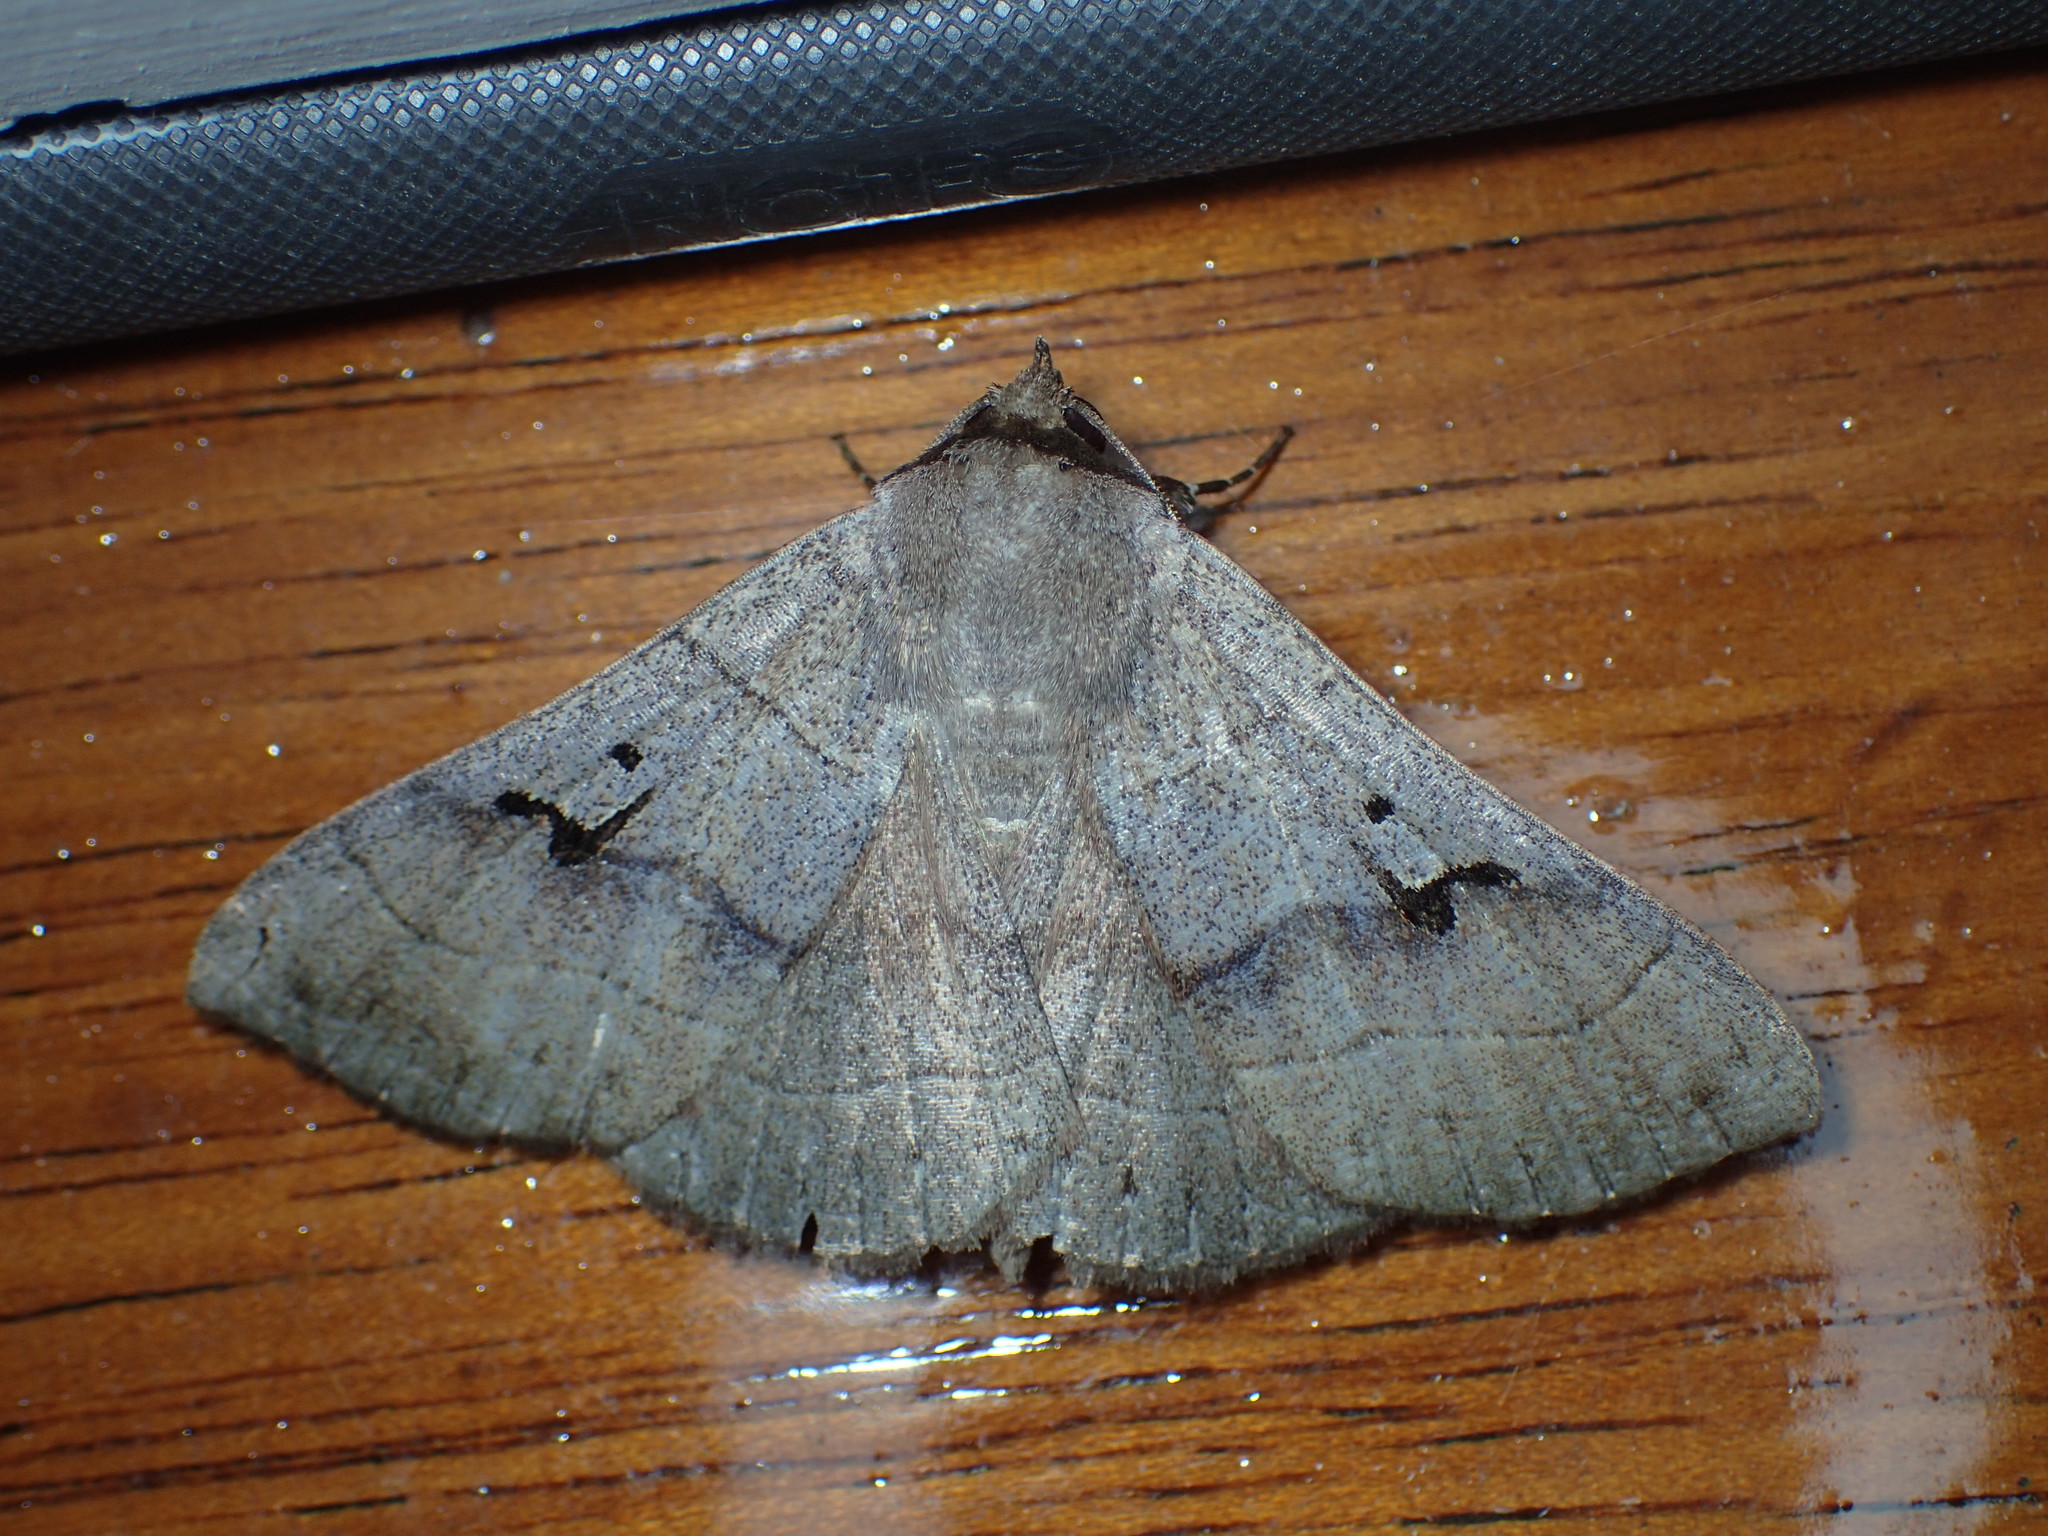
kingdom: Animalia
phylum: Arthropoda
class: Insecta
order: Lepidoptera
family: Erebidae
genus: Panopoda
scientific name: Panopoda carneicosta
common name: Brown panopoda moth
